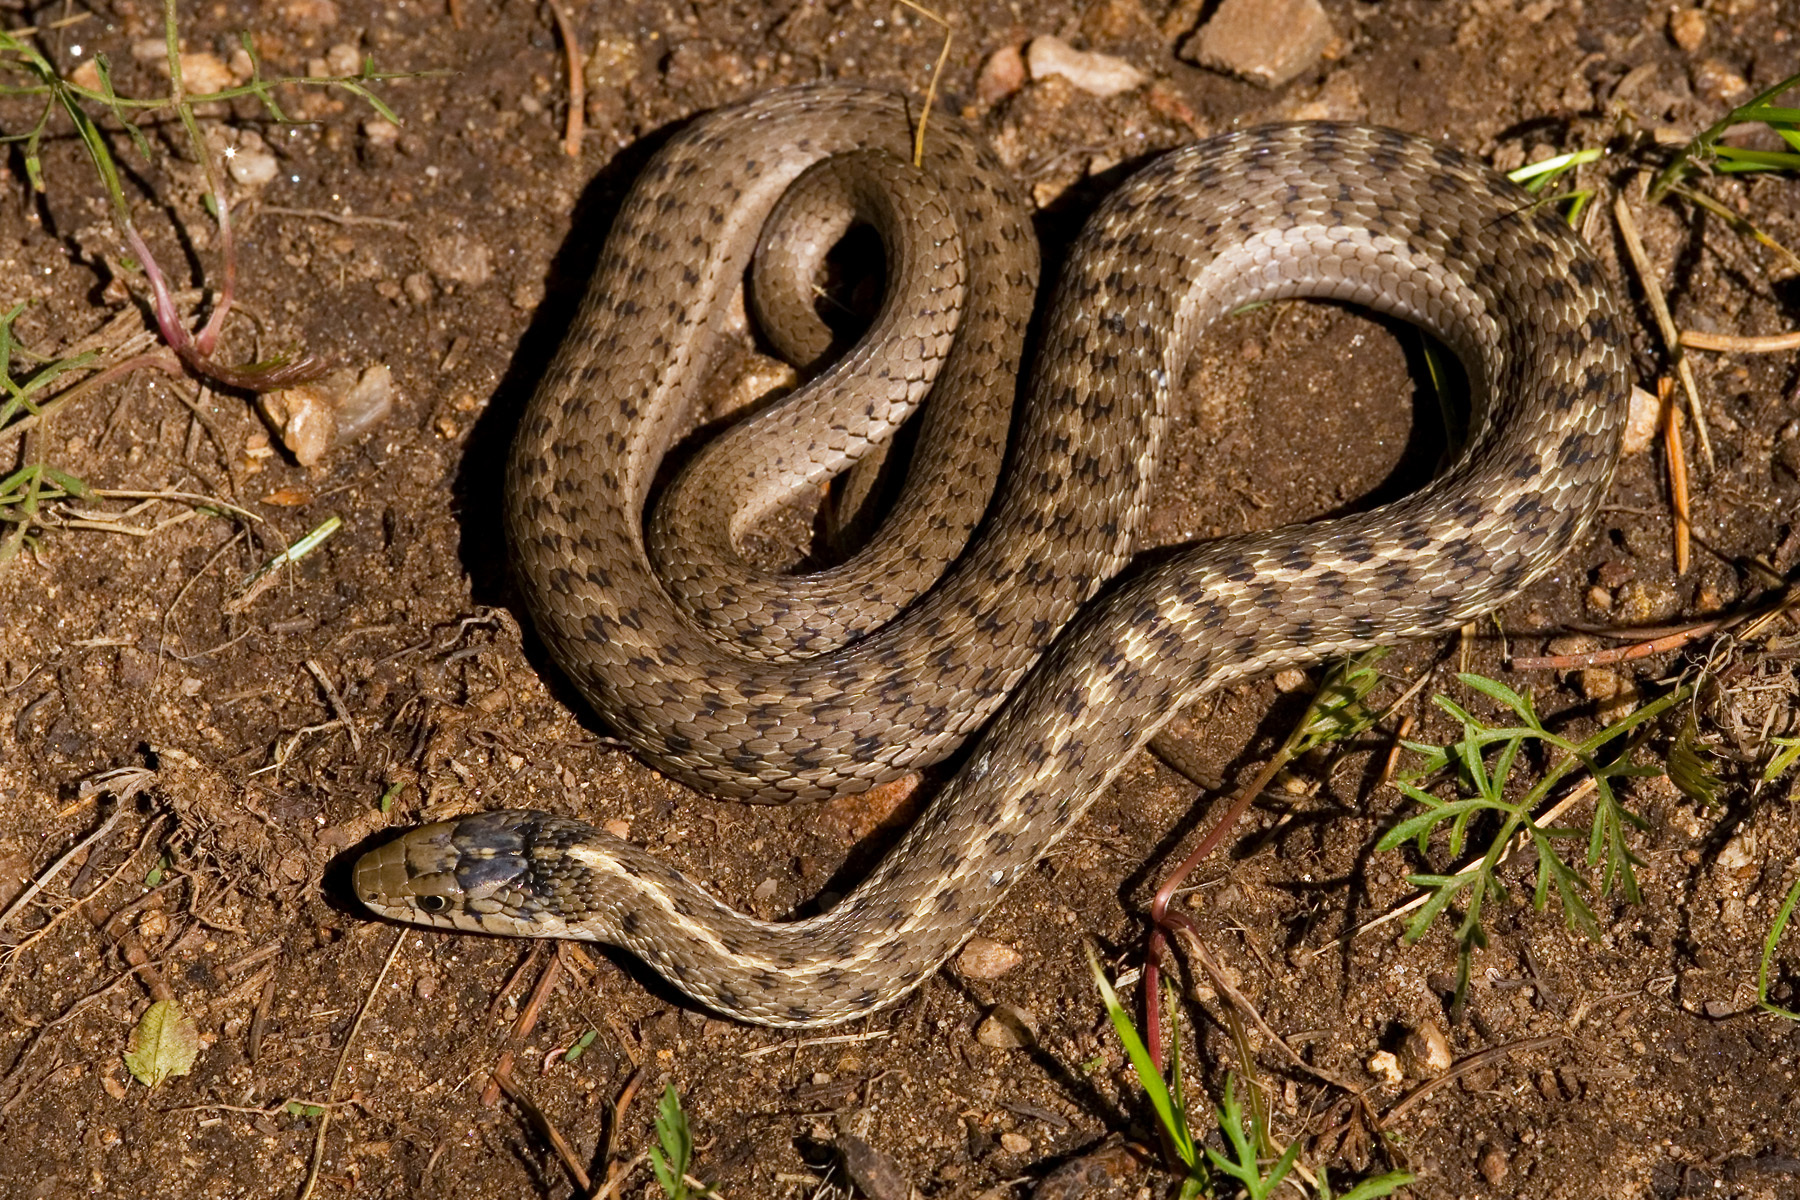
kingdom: Animalia
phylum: Chordata
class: Squamata
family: Colubridae
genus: Thamnophis
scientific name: Thamnophis elegans
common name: Western terrestrial garter snake
